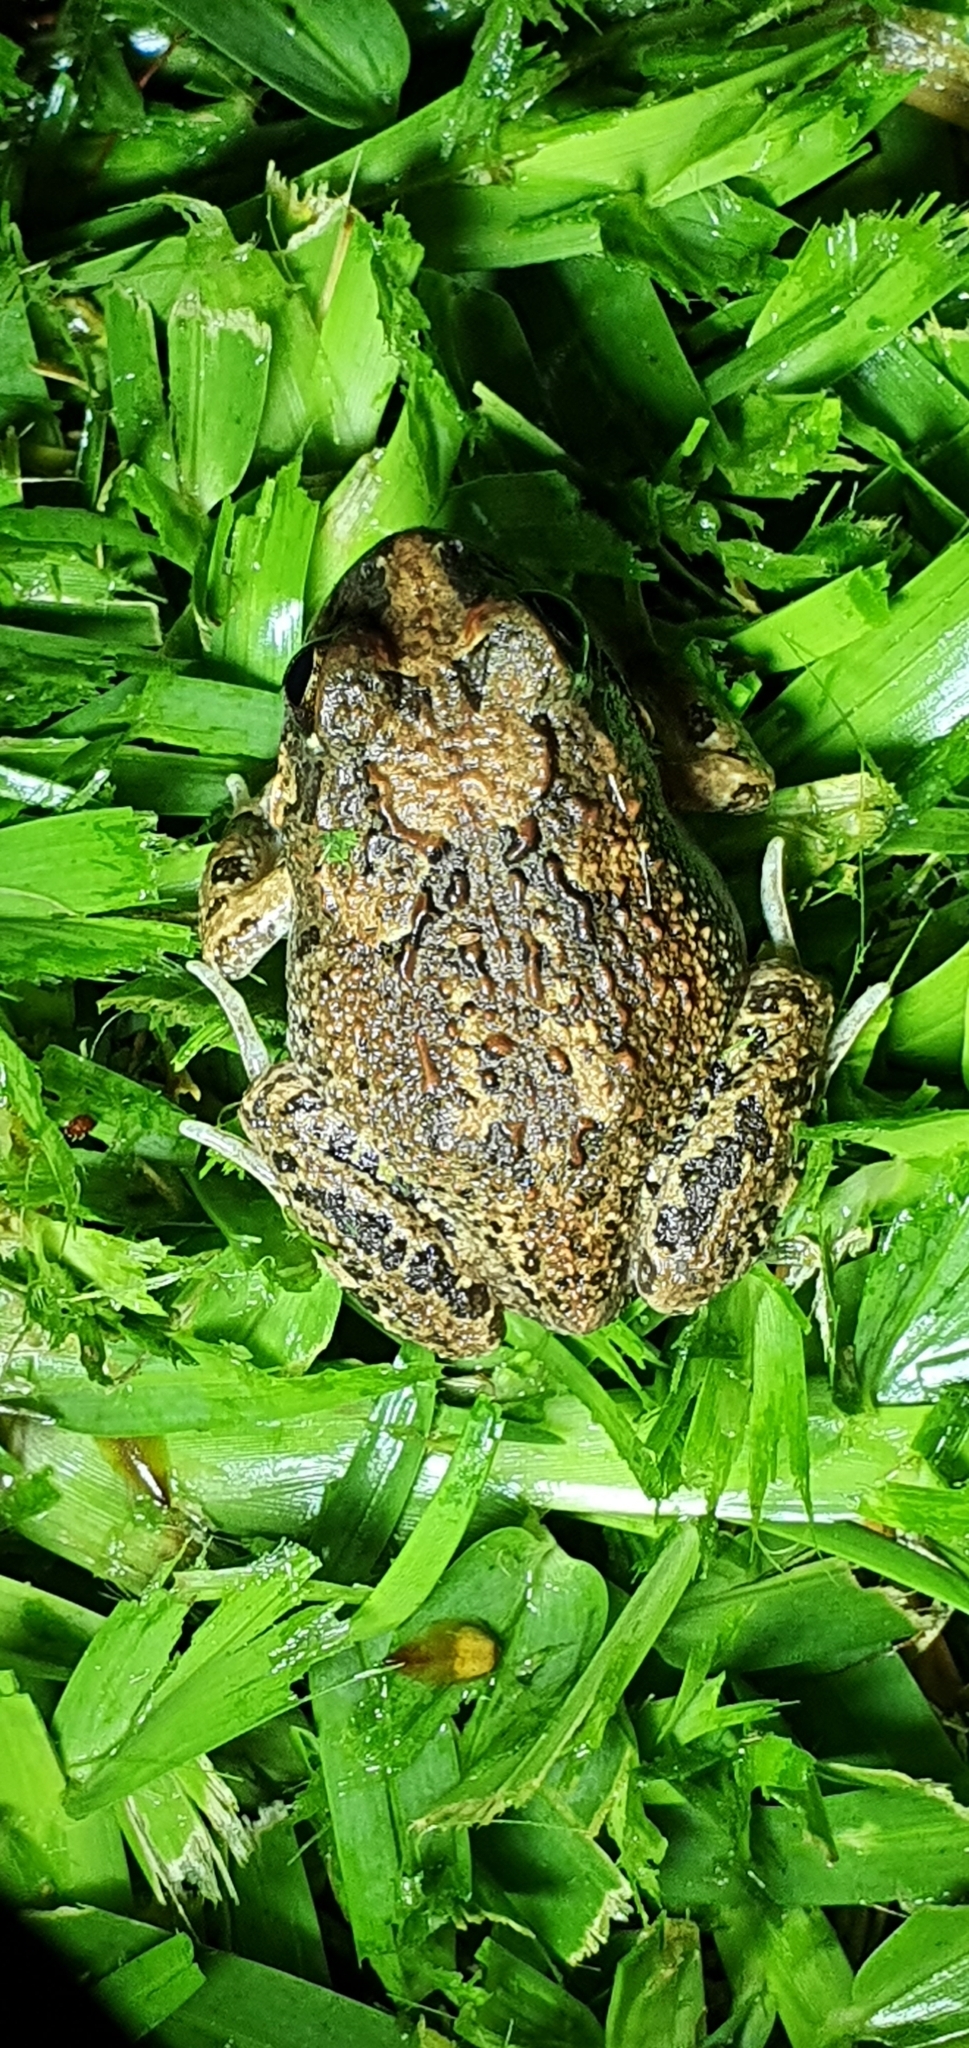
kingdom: Animalia
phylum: Chordata
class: Amphibia
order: Anura
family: Limnodynastidae
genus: Platyplectrum
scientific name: Platyplectrum ornatum
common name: Ornate burrowing frog
